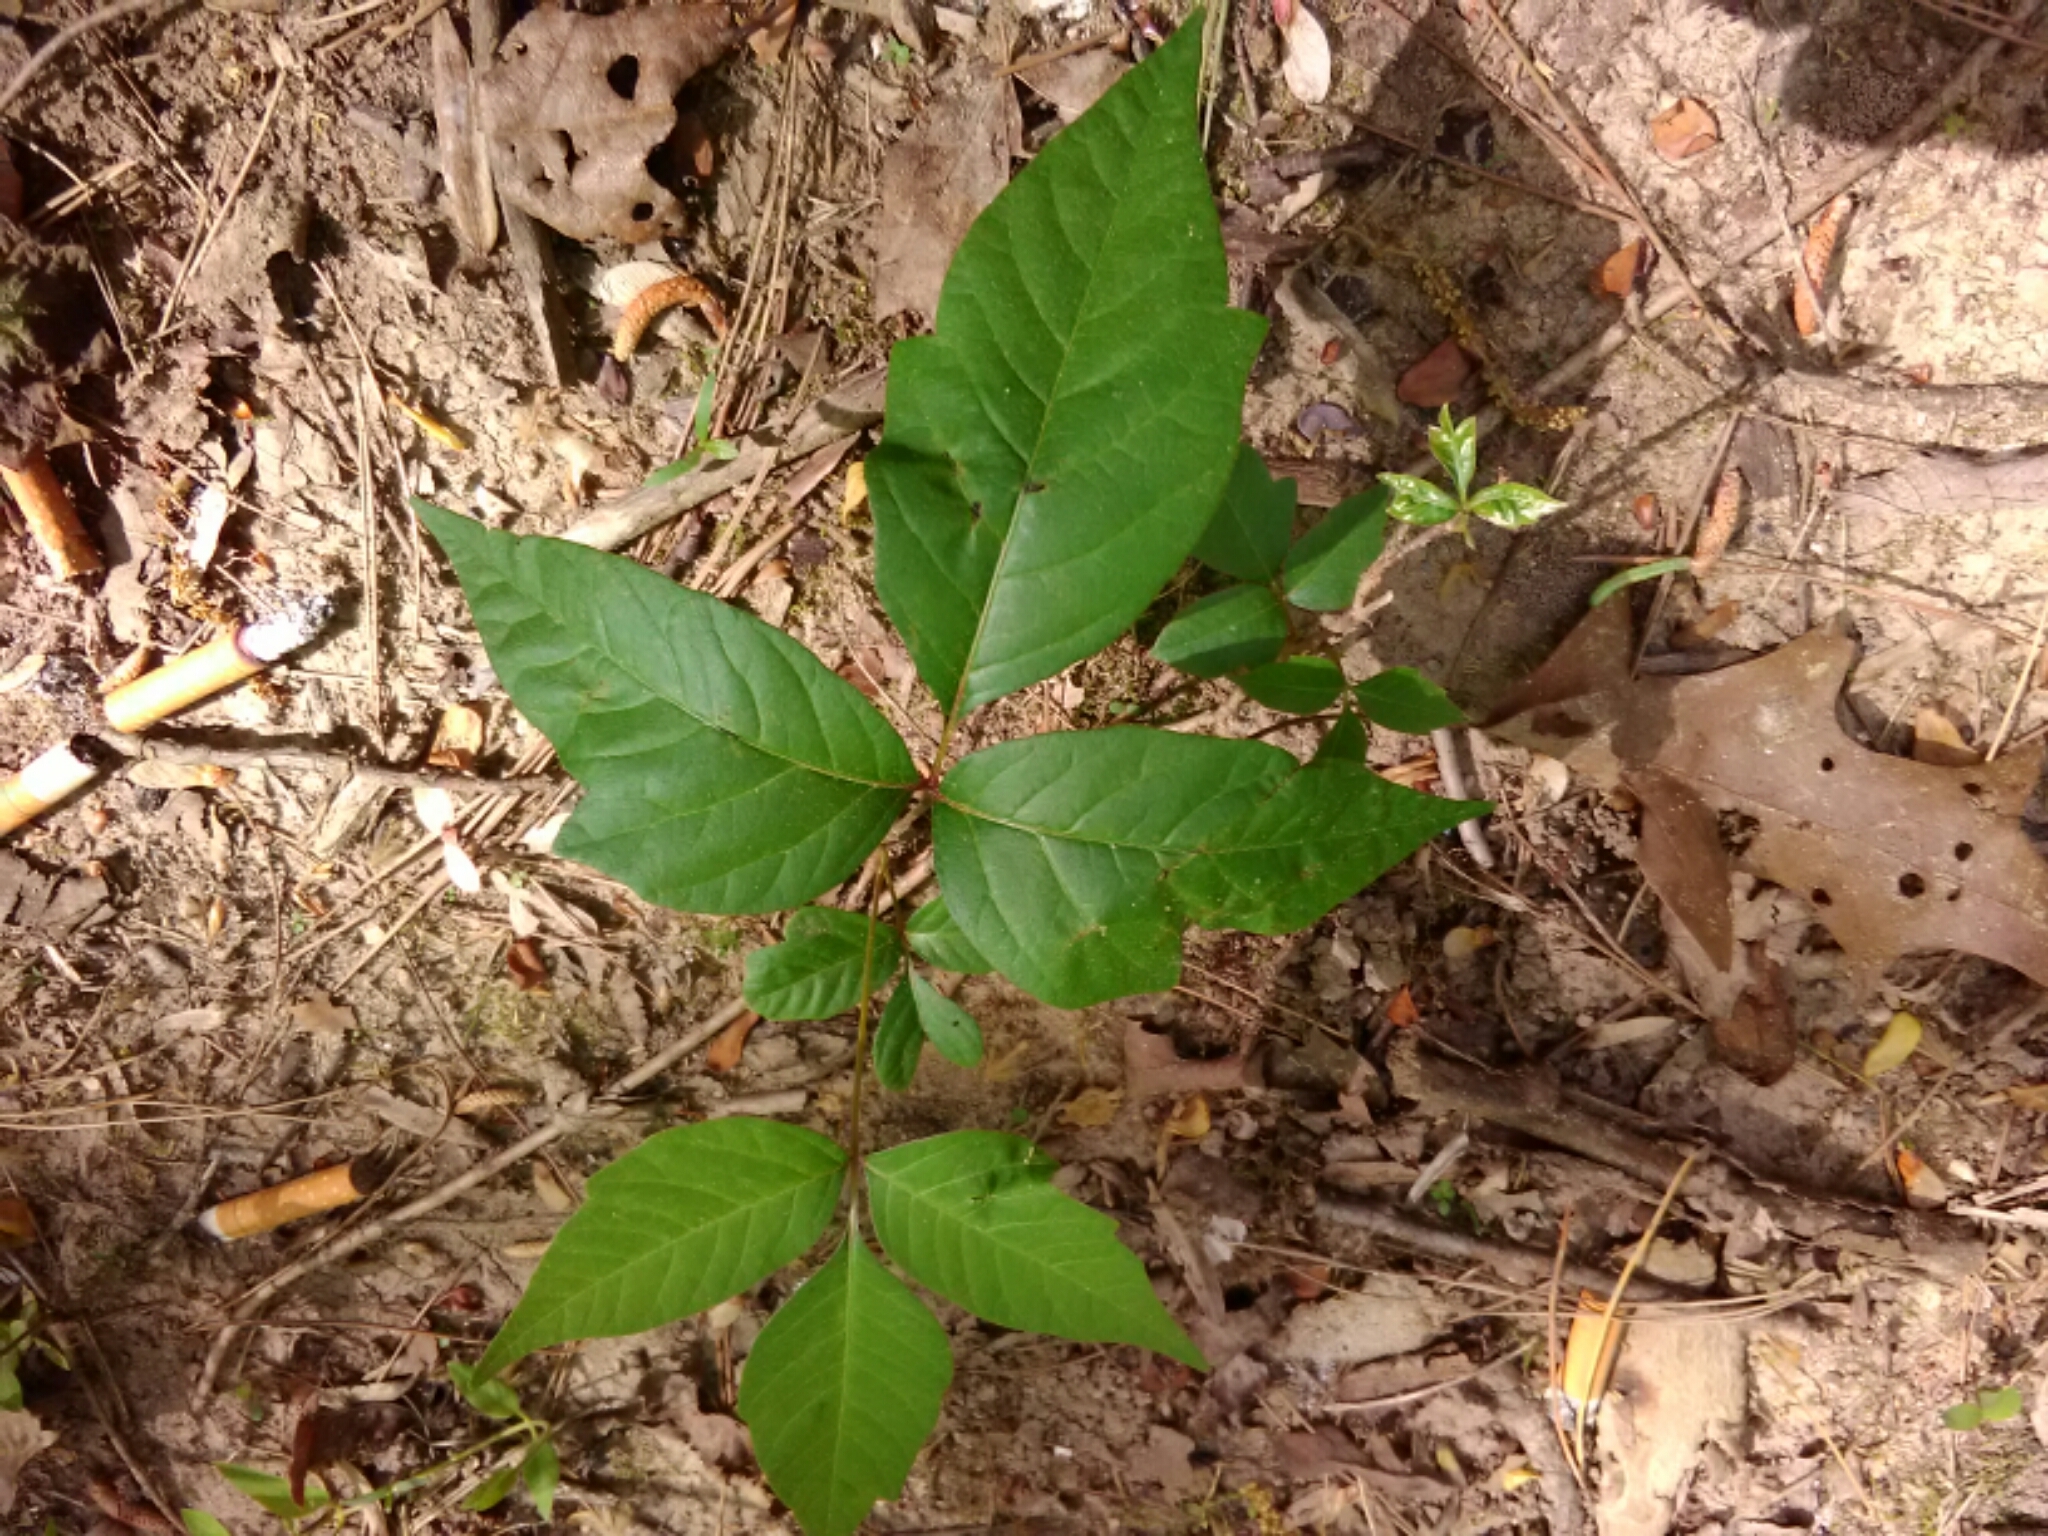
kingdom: Plantae
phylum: Tracheophyta
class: Magnoliopsida
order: Sapindales
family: Anacardiaceae
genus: Toxicodendron
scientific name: Toxicodendron radicans
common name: Poison ivy
